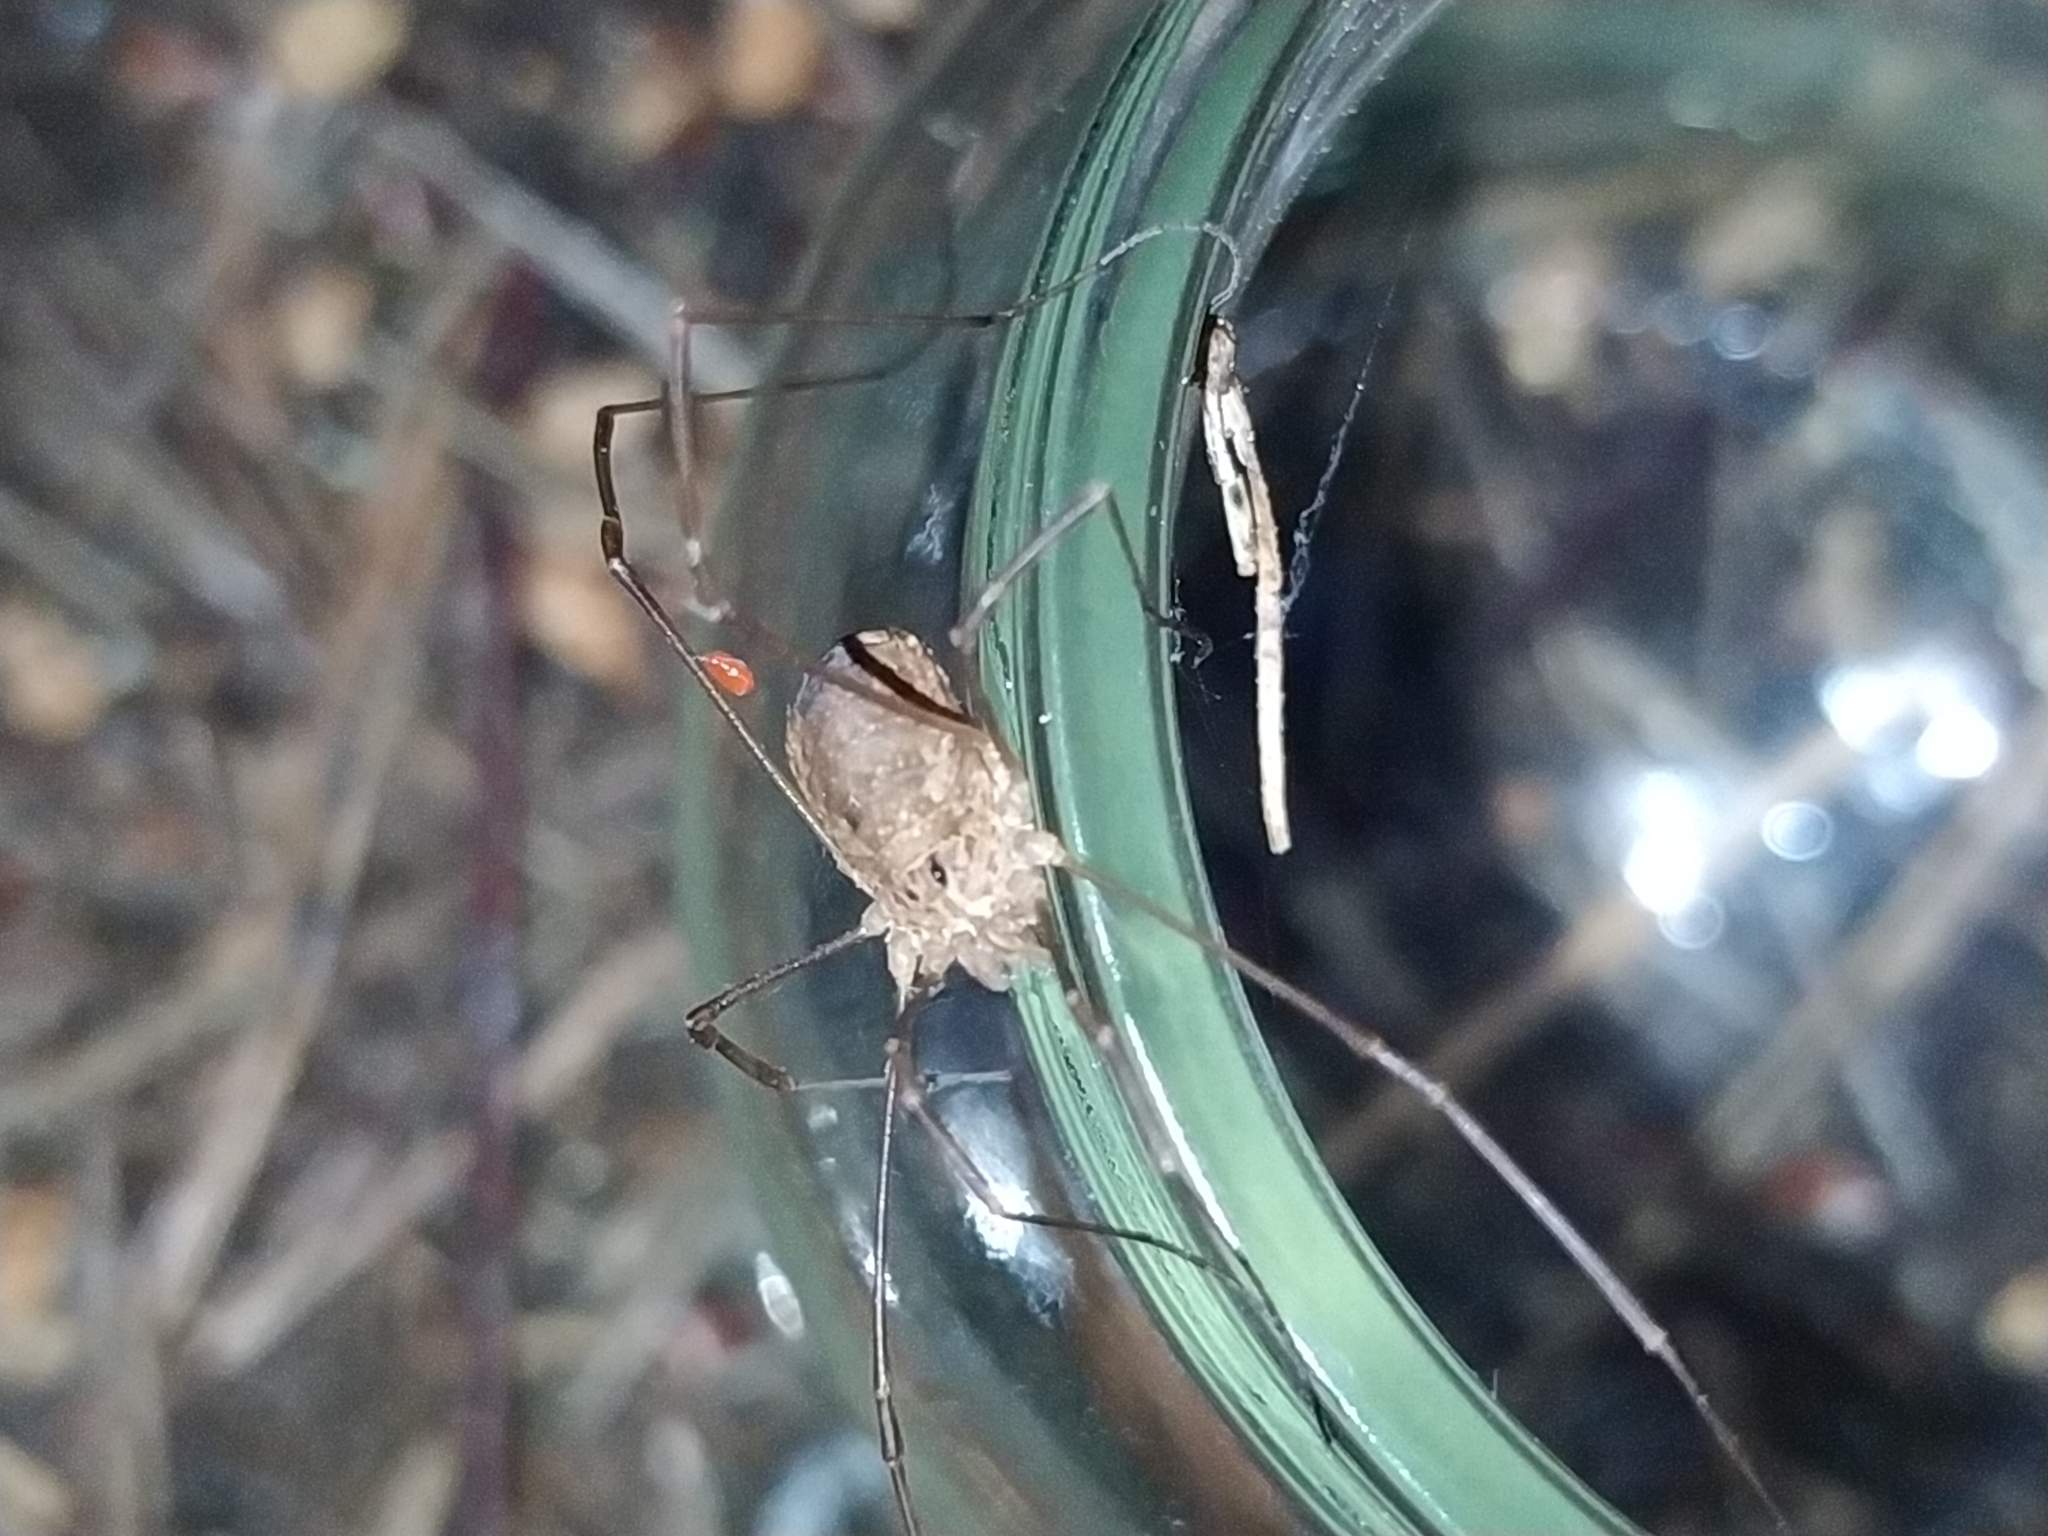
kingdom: Animalia
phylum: Arthropoda
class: Arachnida
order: Opiliones
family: Phalangiidae
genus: Rilaena
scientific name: Rilaena triangularis
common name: Spring harvestman
